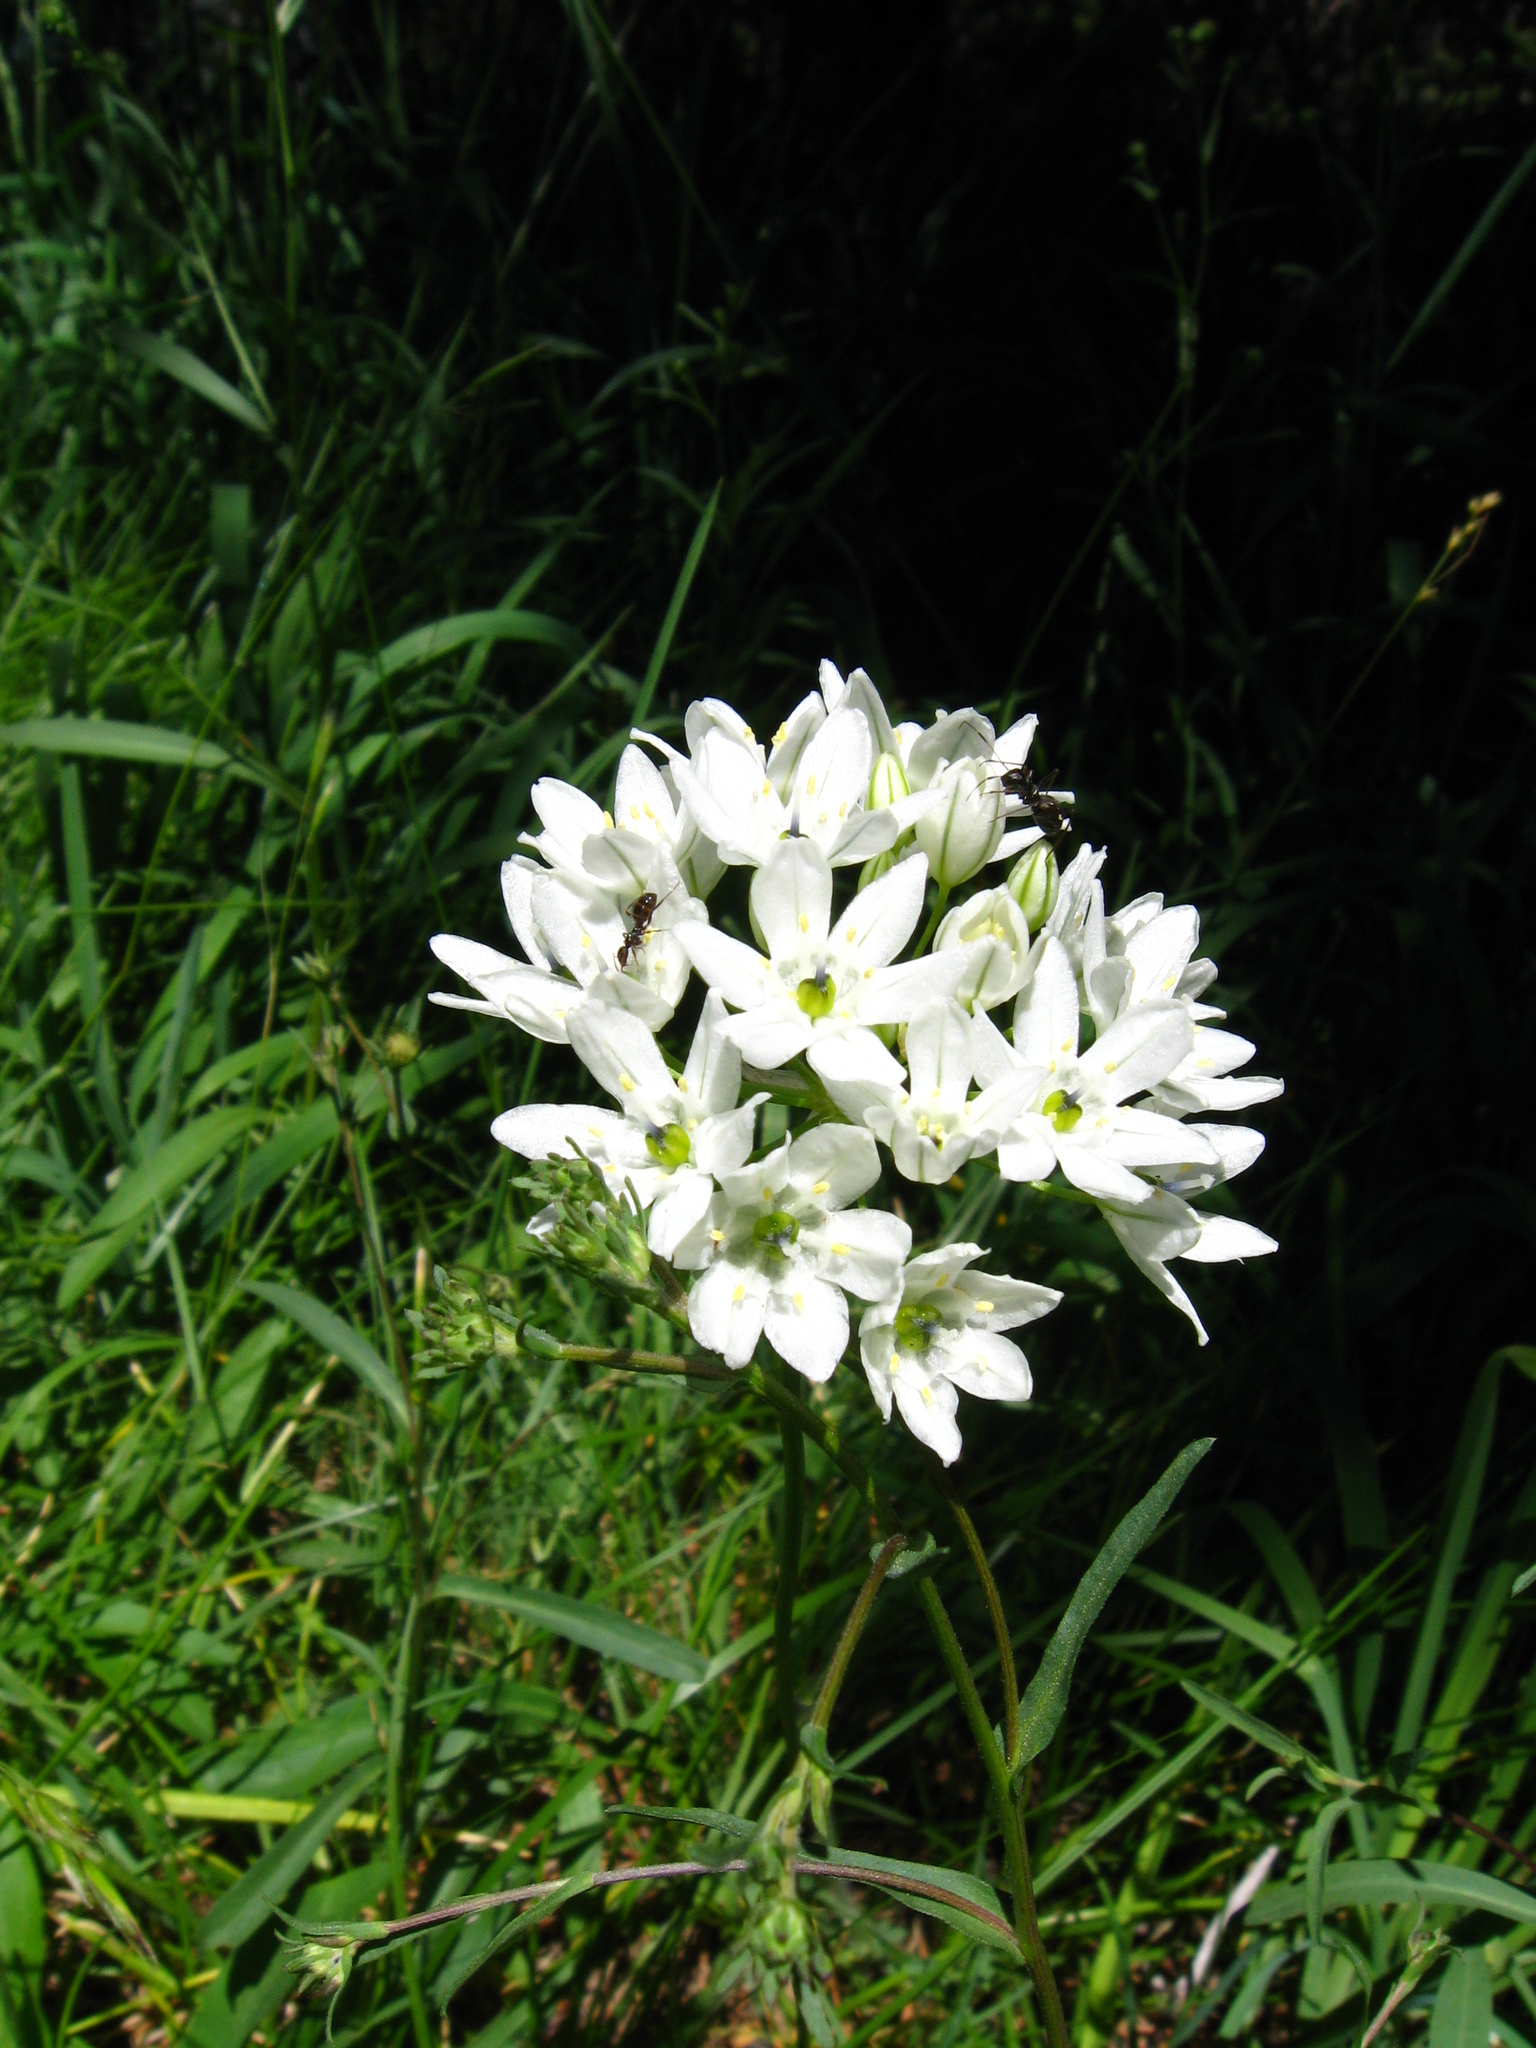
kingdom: Plantae
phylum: Tracheophyta
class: Liliopsida
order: Asparagales
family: Asparagaceae
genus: Triteleia
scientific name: Triteleia hyacinthina
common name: White brodiaea
